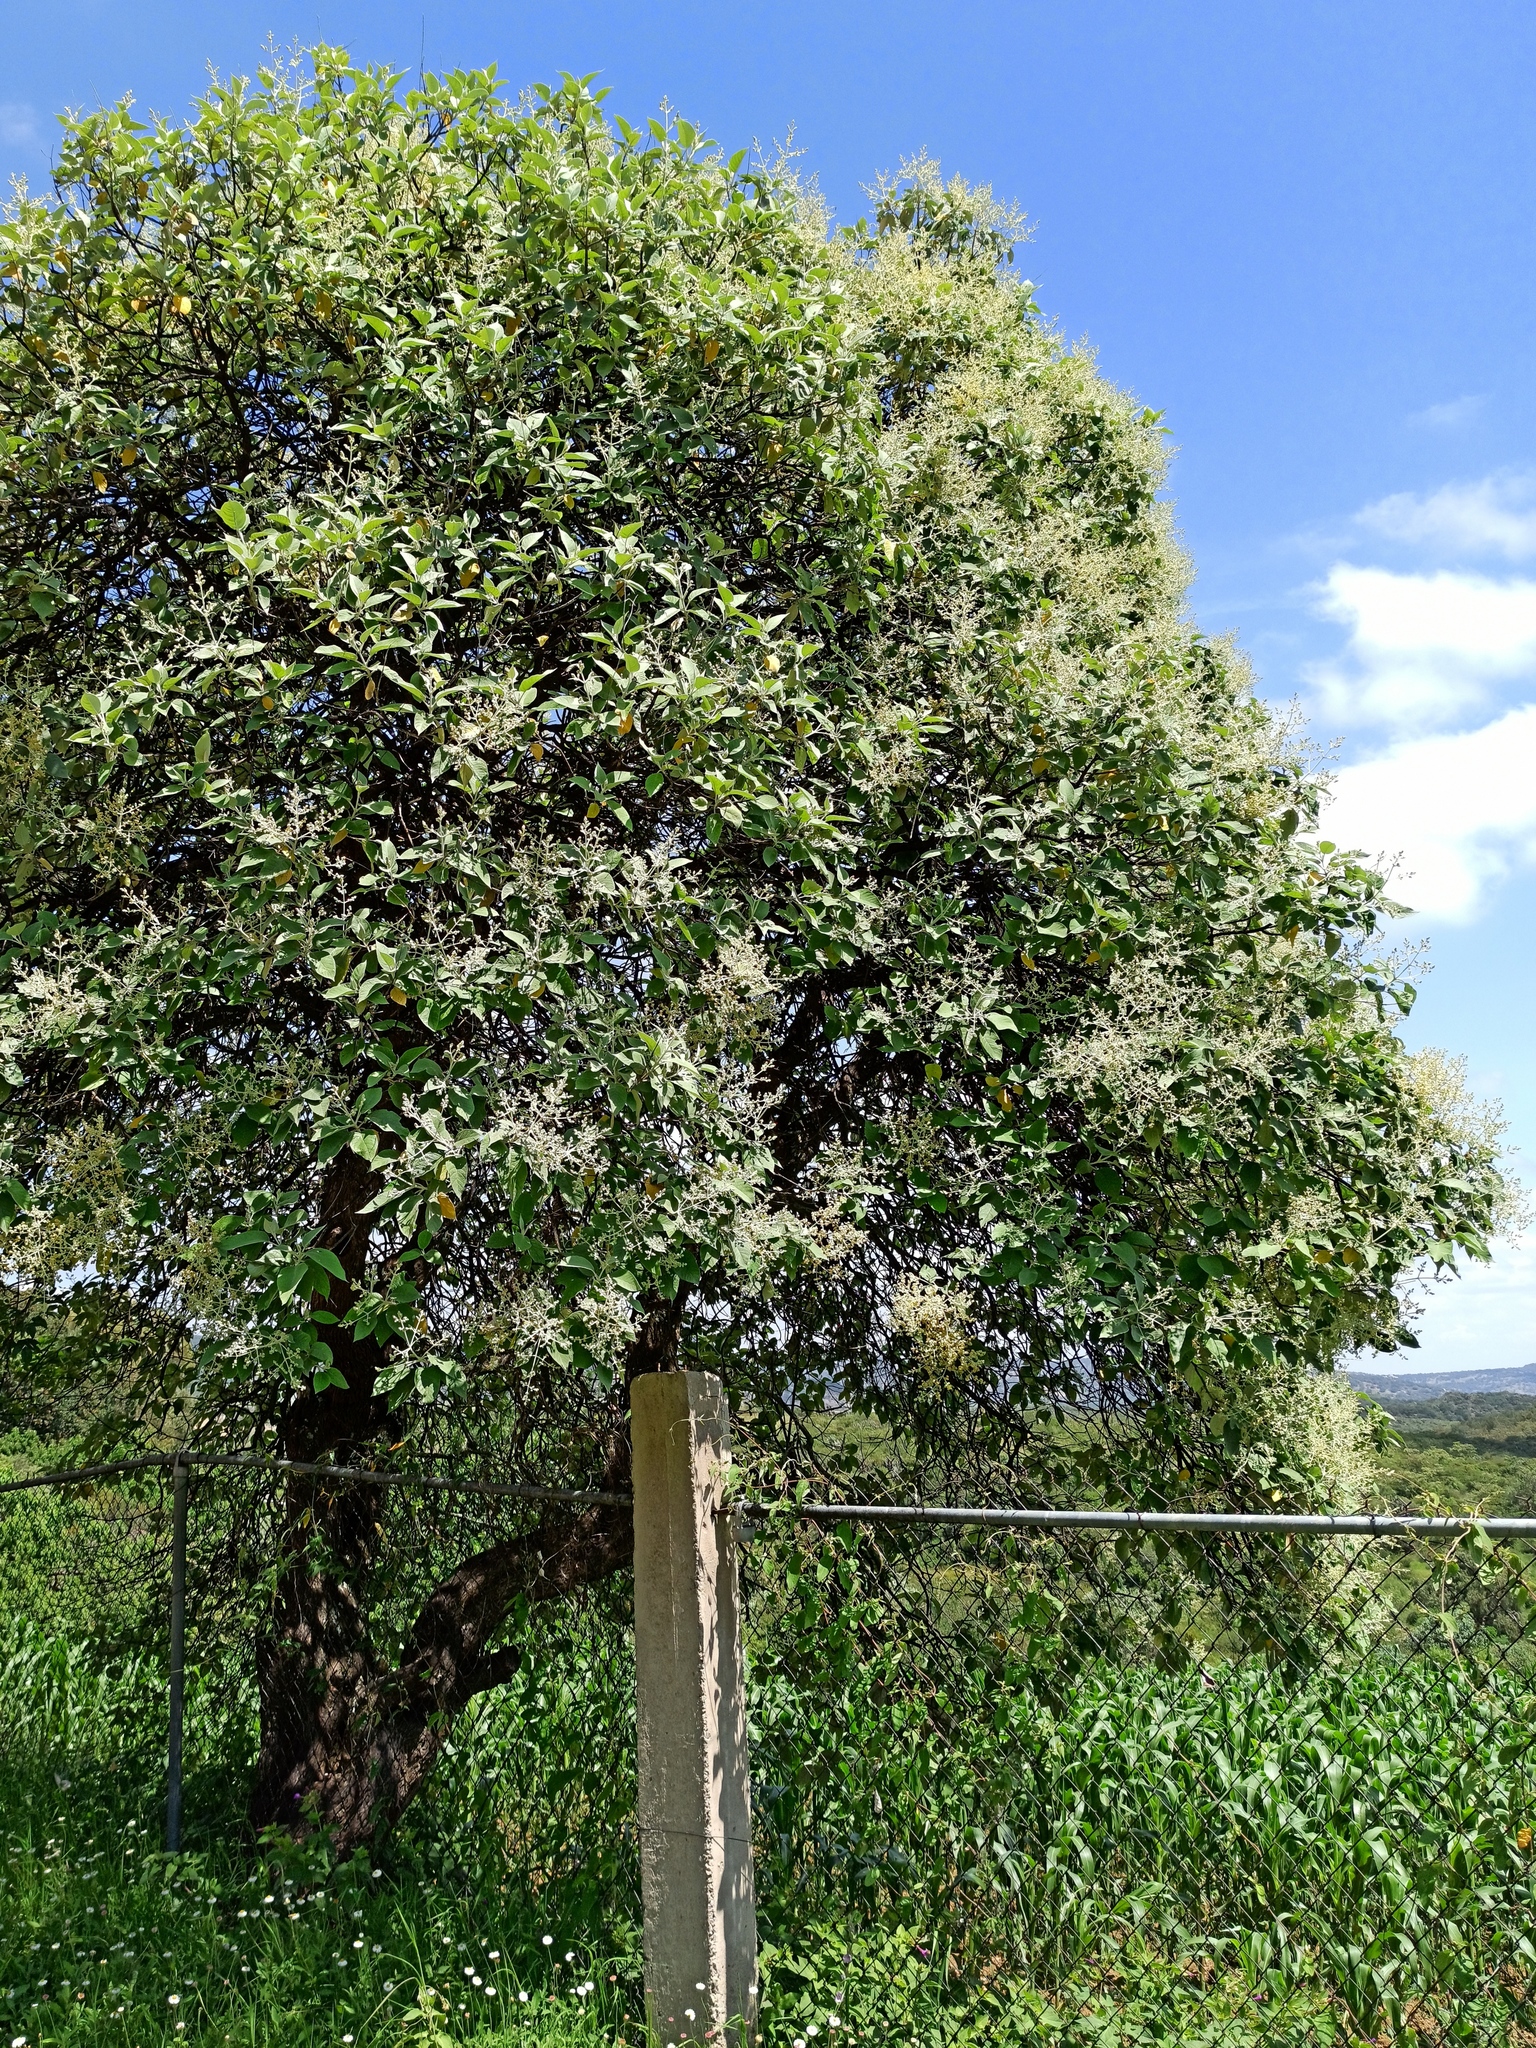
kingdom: Plantae
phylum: Tracheophyta
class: Magnoliopsida
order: Lamiales
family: Scrophulariaceae
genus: Buddleja
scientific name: Buddleja cordata
